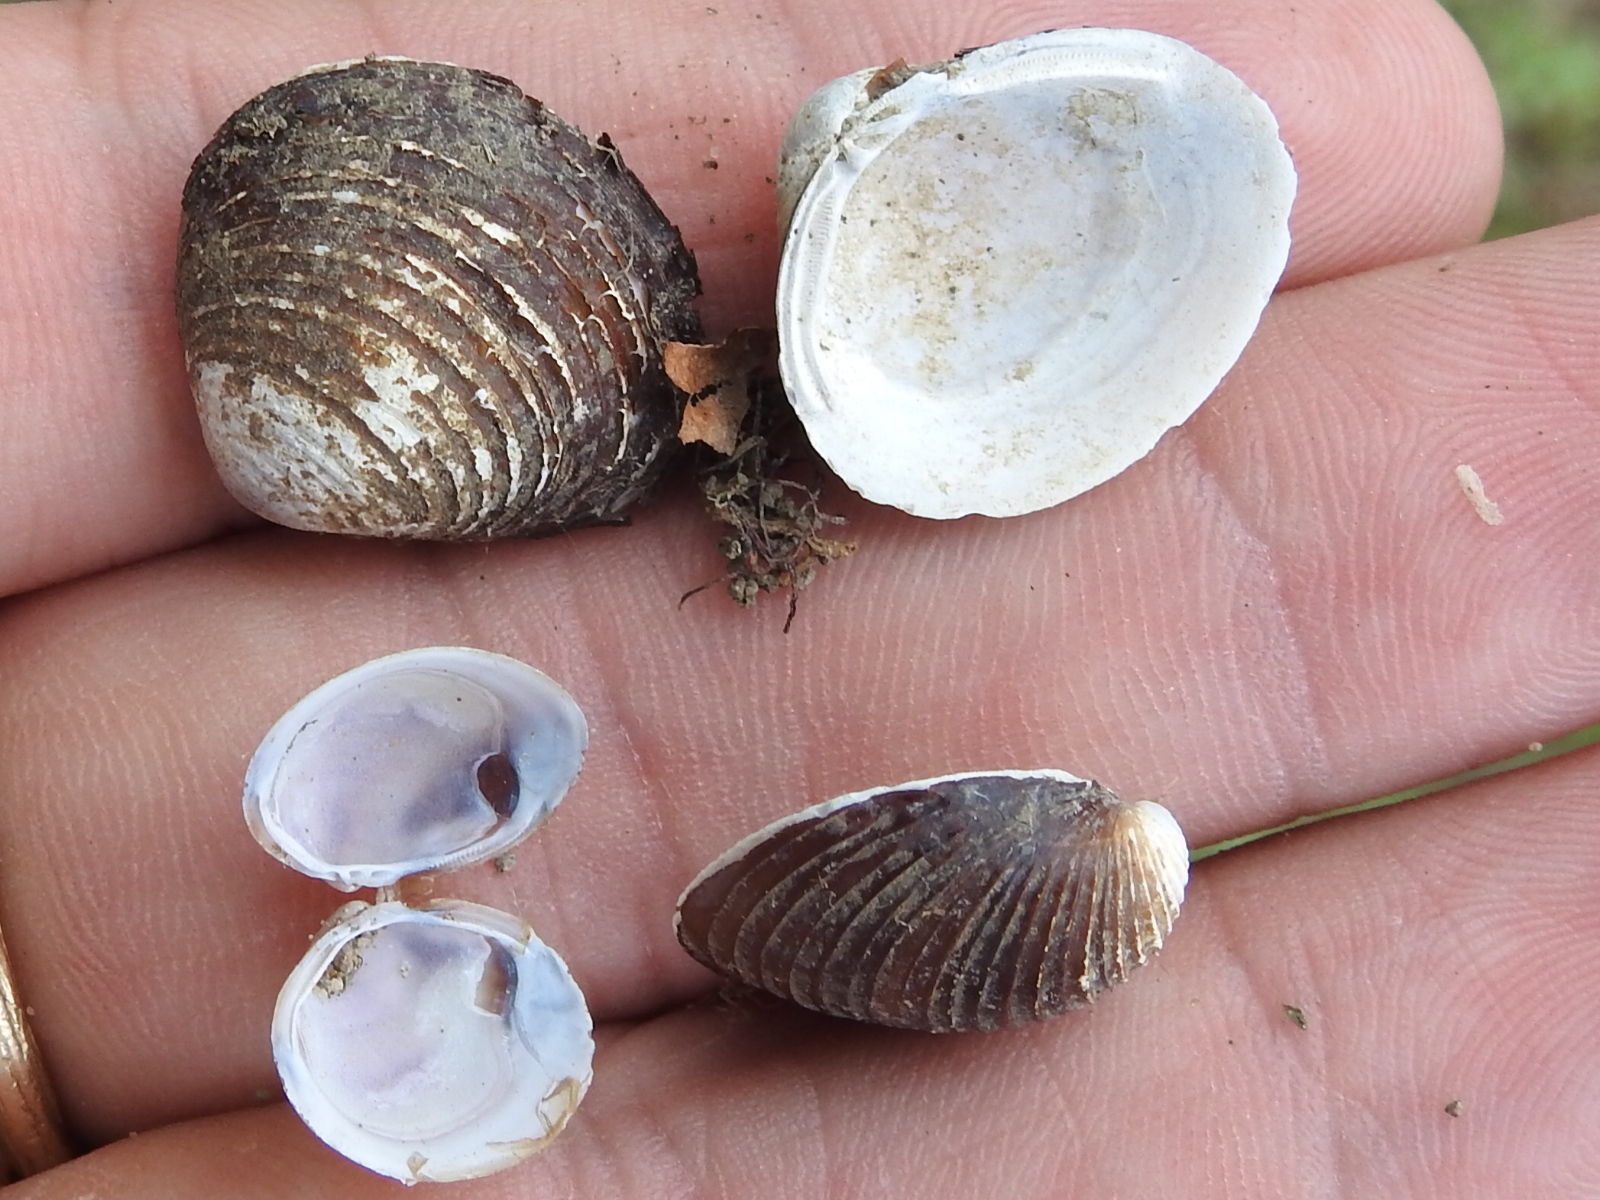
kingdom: Animalia
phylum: Mollusca
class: Bivalvia
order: Venerida
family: Cyrenidae
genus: Corbicula
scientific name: Corbicula fluminea
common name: Asian clam
